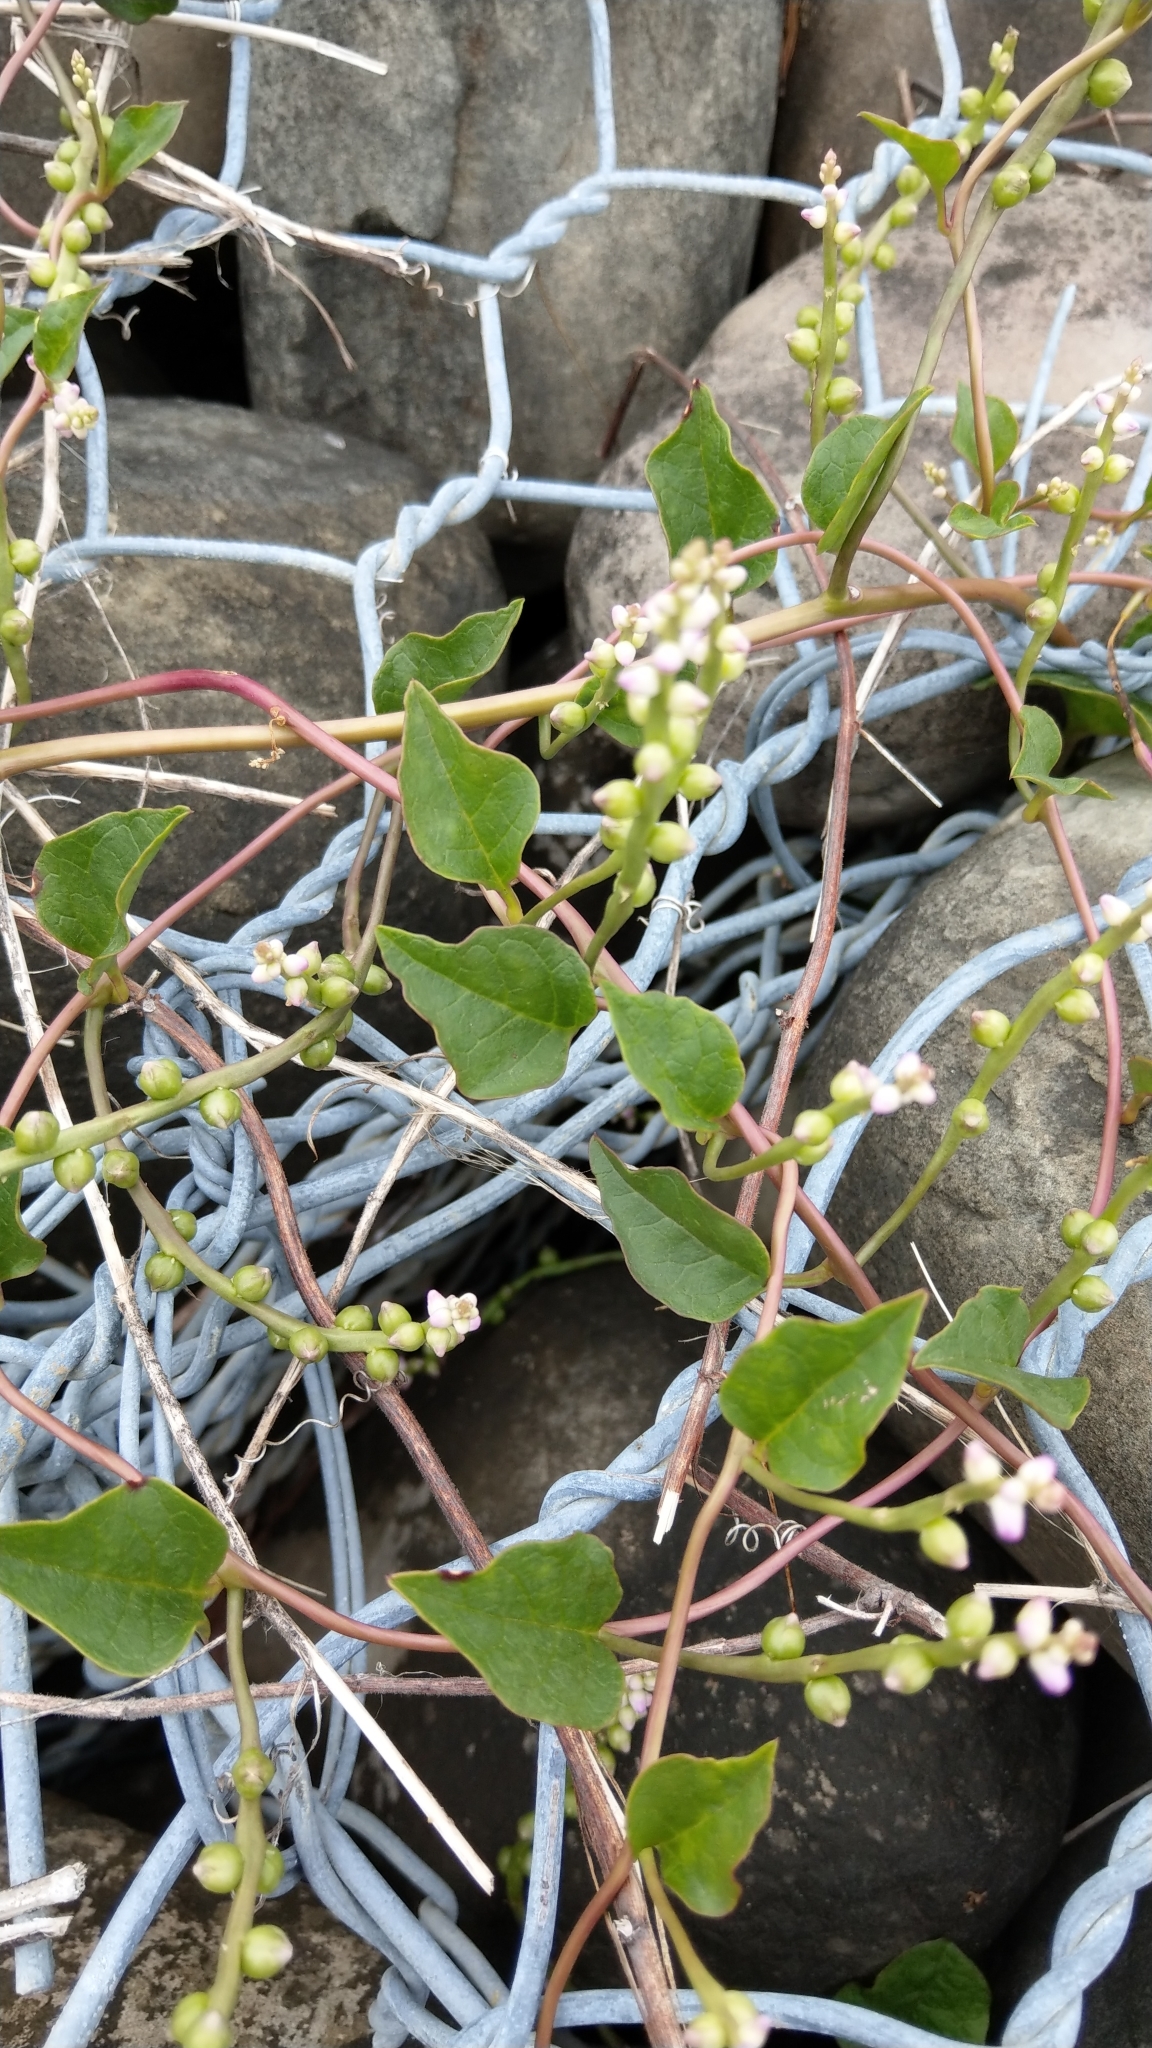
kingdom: Plantae
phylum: Tracheophyta
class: Magnoliopsida
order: Caryophyllales
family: Basellaceae
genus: Basella
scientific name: Basella alba
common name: Indian spinach
